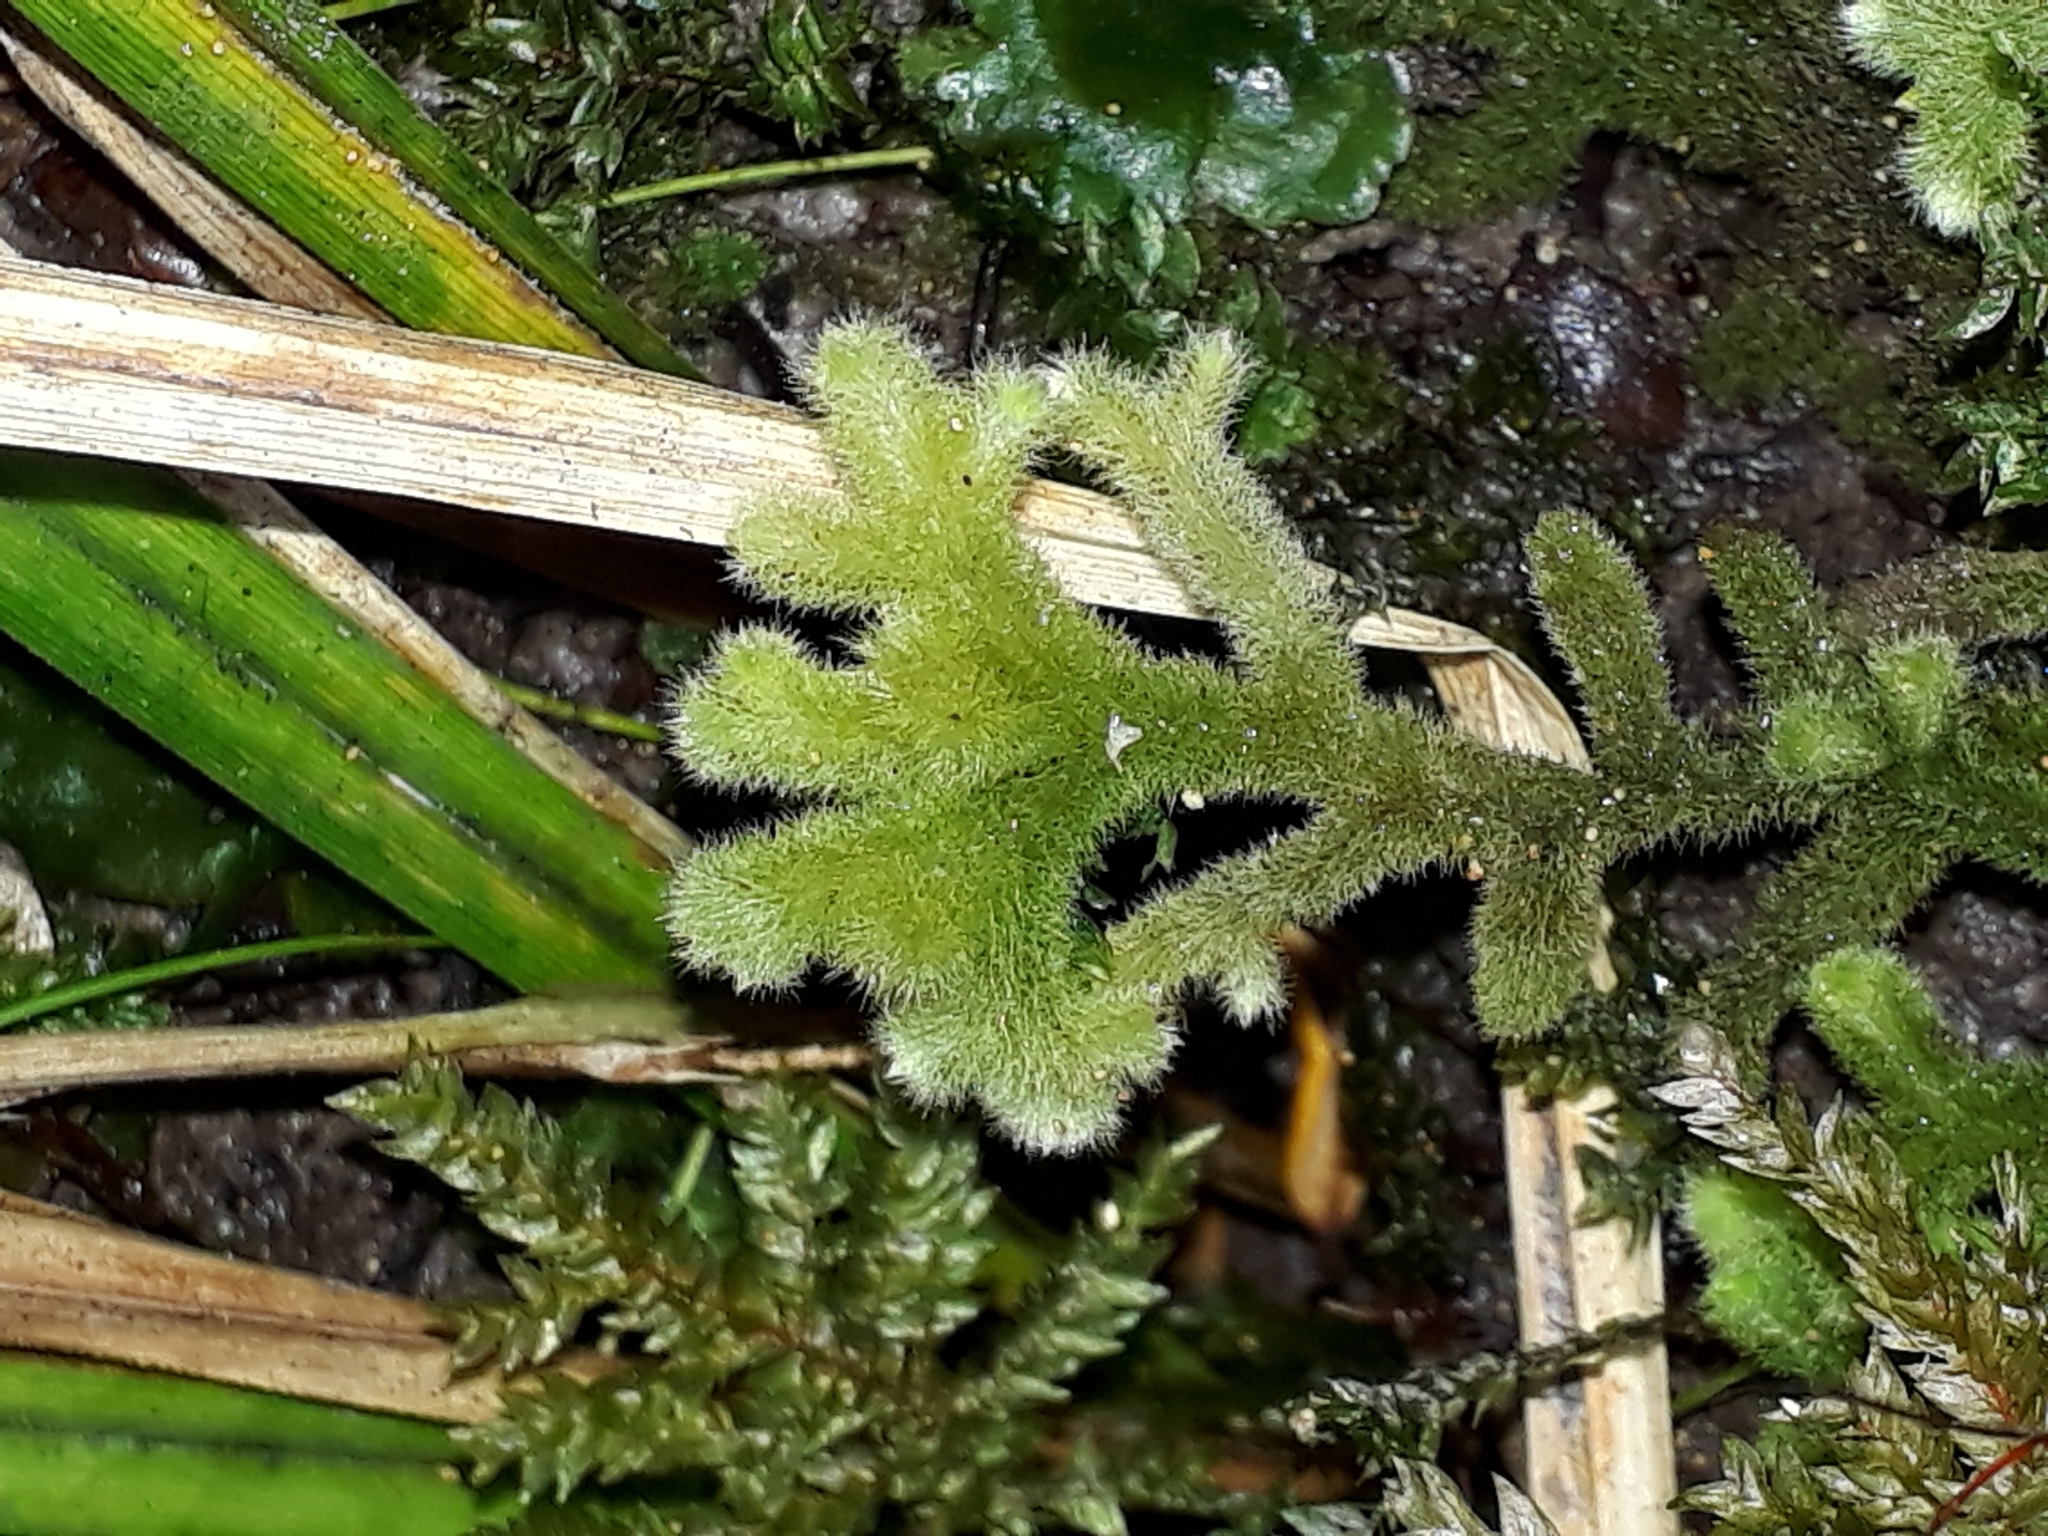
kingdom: Plantae
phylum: Marchantiophyta
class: Jungermanniopsida
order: Jungermanniales
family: Trichocoleaceae
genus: Leiomitra
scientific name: Leiomitra lanata
